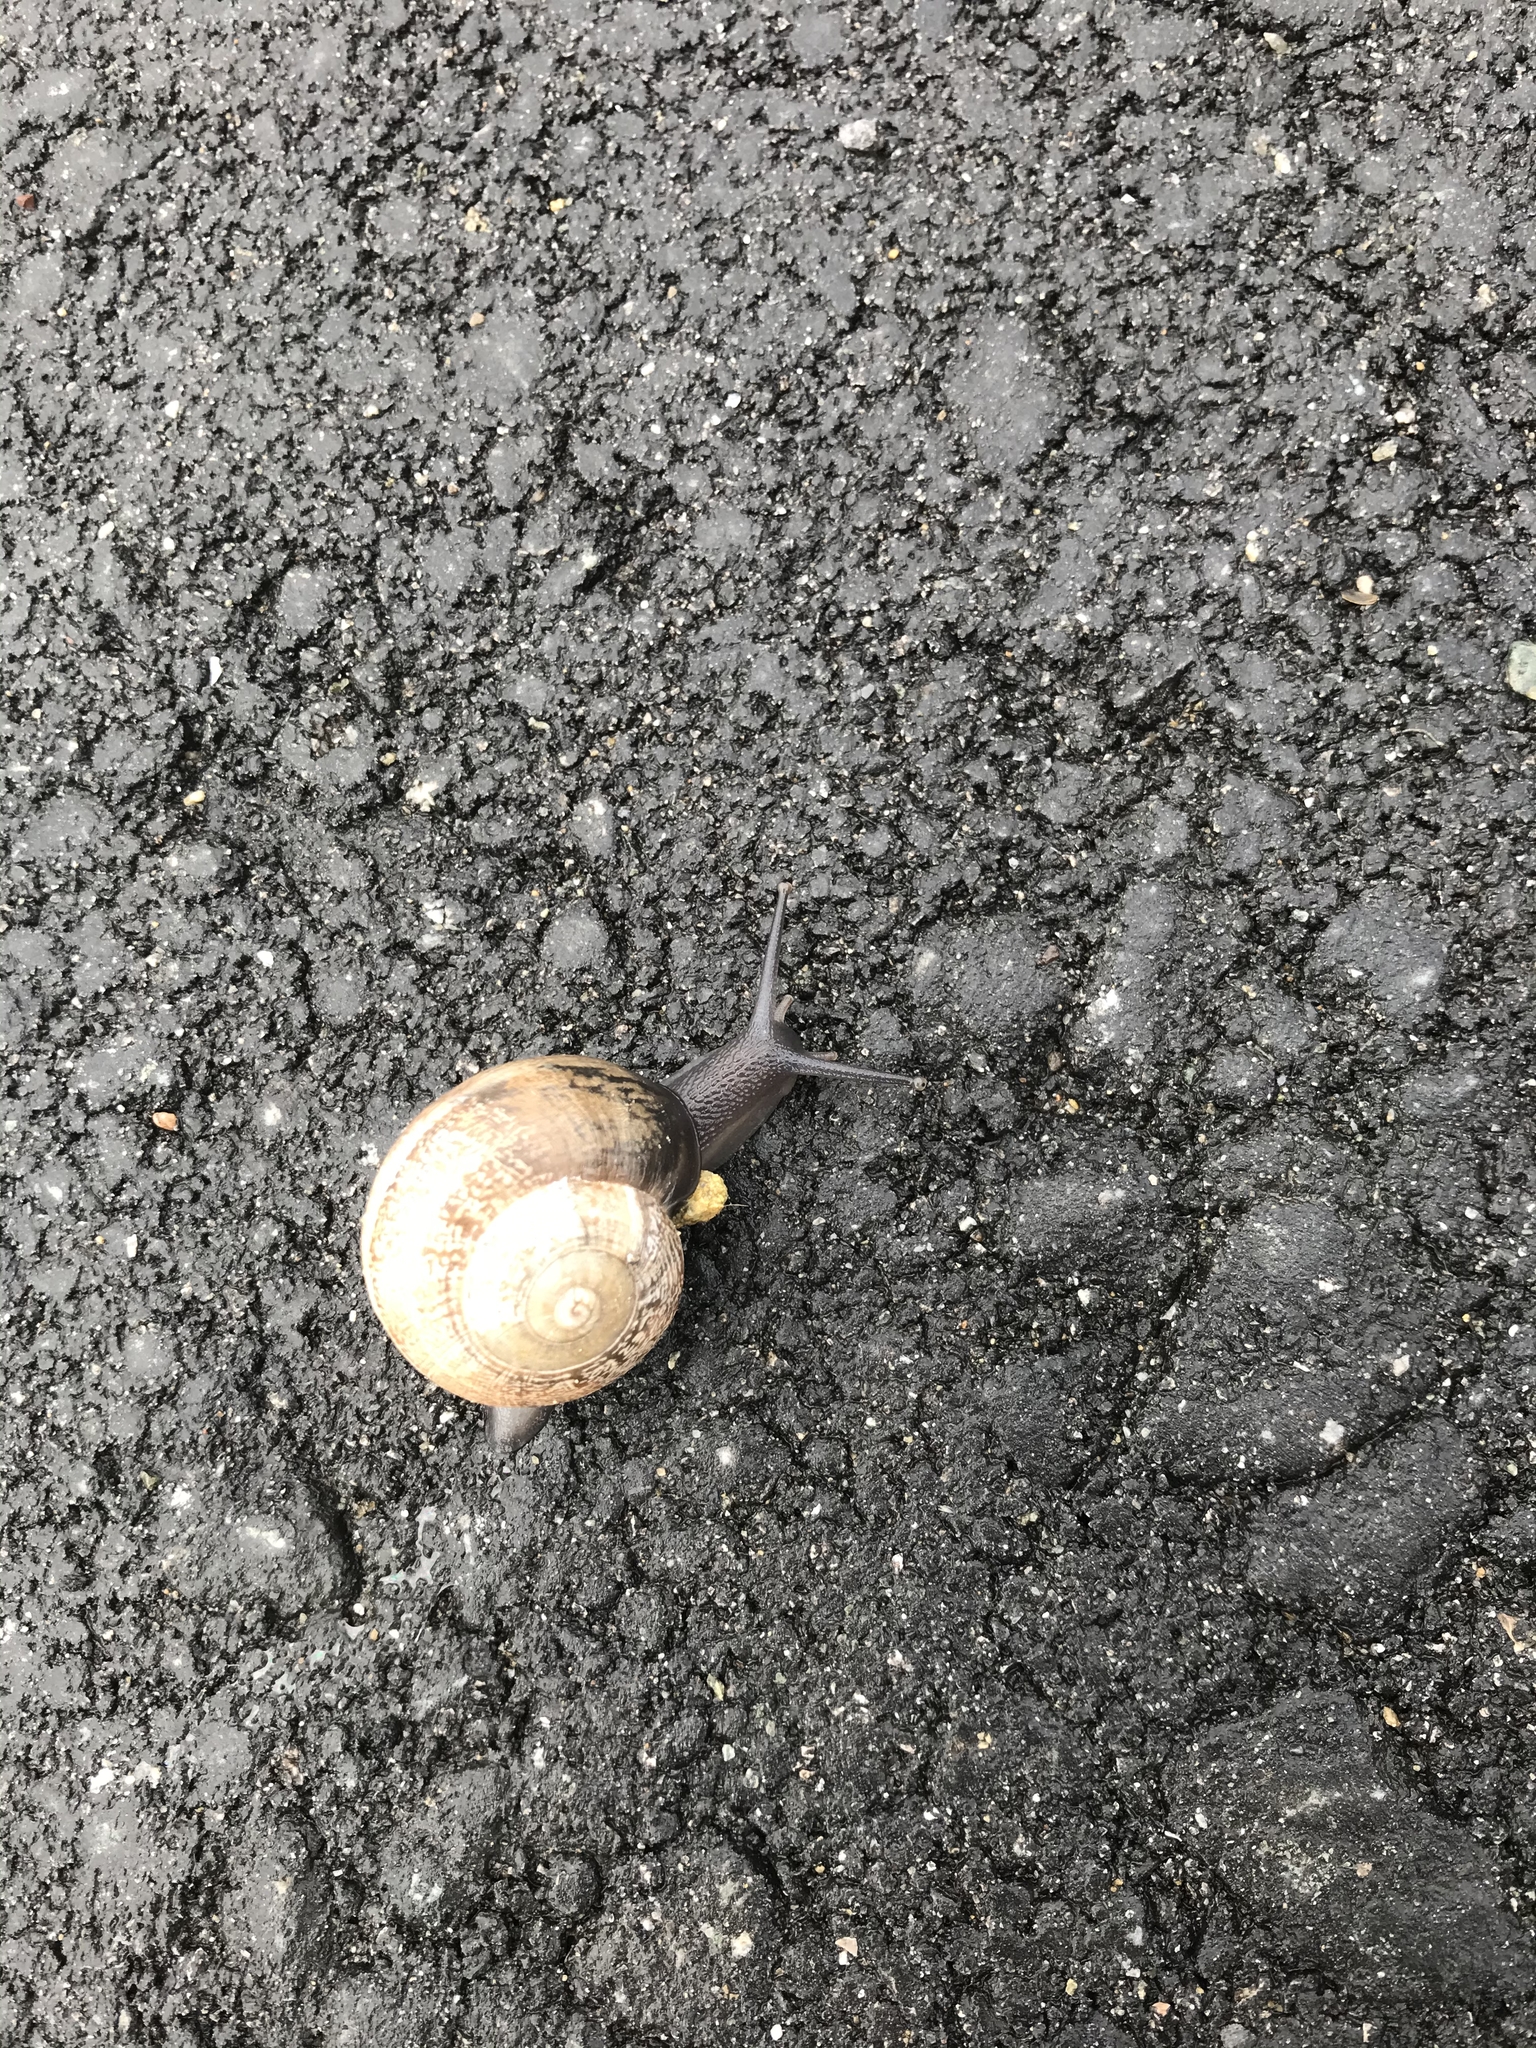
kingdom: Animalia
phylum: Mollusca
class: Gastropoda
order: Stylommatophora
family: Helicidae
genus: Otala
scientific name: Otala lactea
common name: Milk snail
